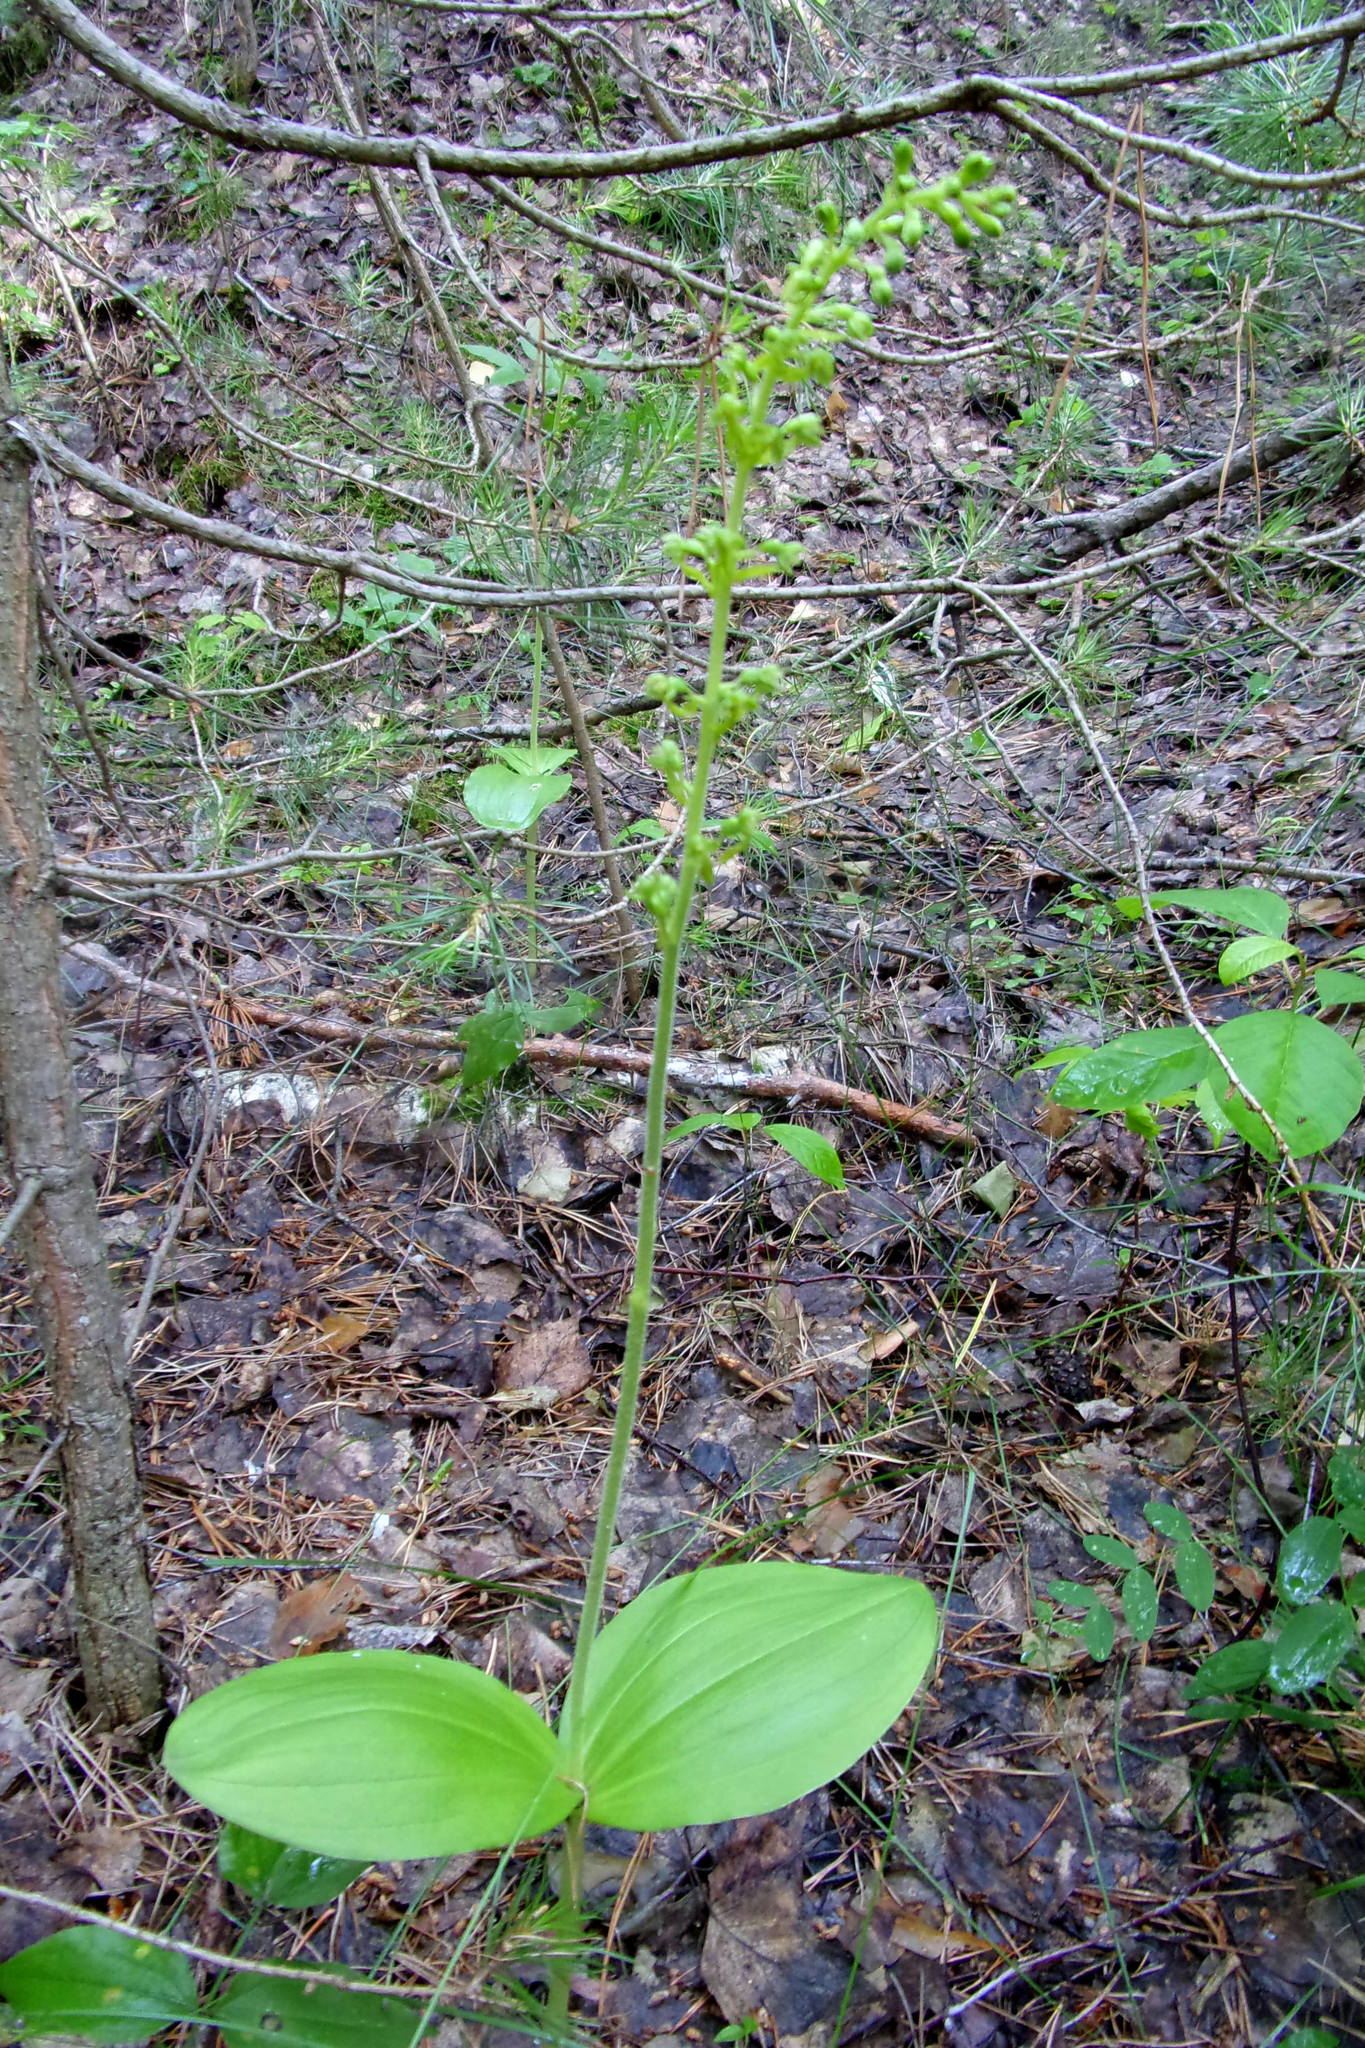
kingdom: Plantae
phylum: Tracheophyta
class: Liliopsida
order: Asparagales
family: Orchidaceae
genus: Neottia
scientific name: Neottia ovata
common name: Common twayblade
